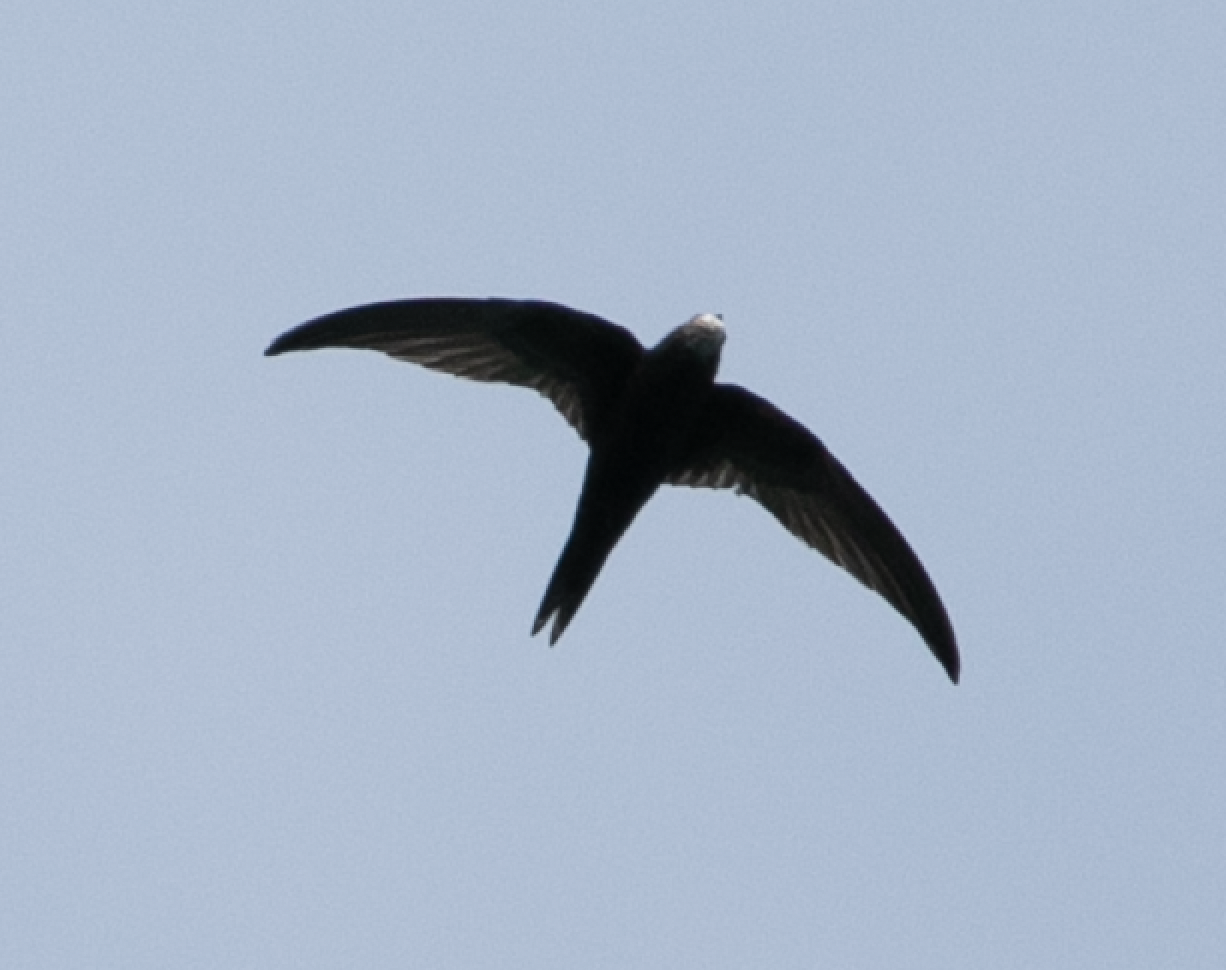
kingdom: Animalia
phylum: Chordata
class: Aves
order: Apodiformes
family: Apodidae
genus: Apus
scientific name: Apus apus
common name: Common swift
